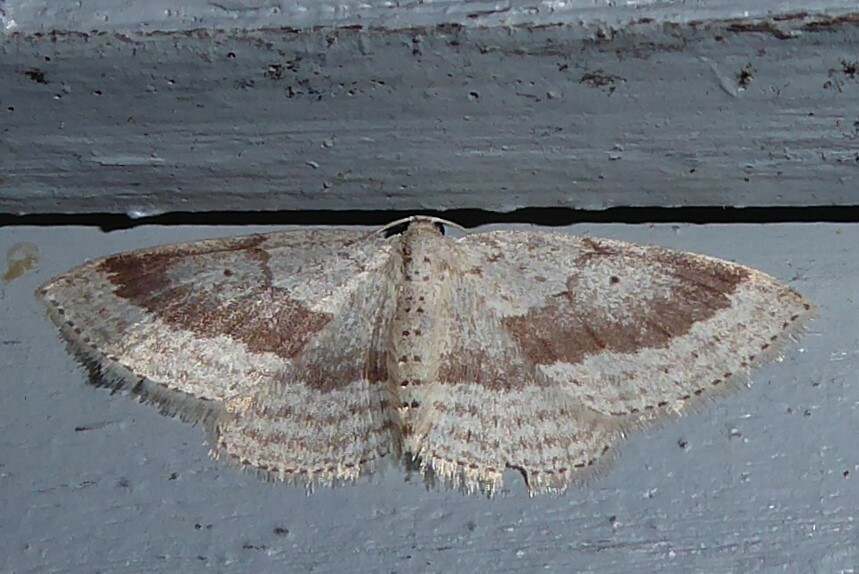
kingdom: Animalia
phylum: Arthropoda
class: Insecta
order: Lepidoptera
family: Geometridae
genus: Poecilasthena
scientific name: Poecilasthena schistaria
